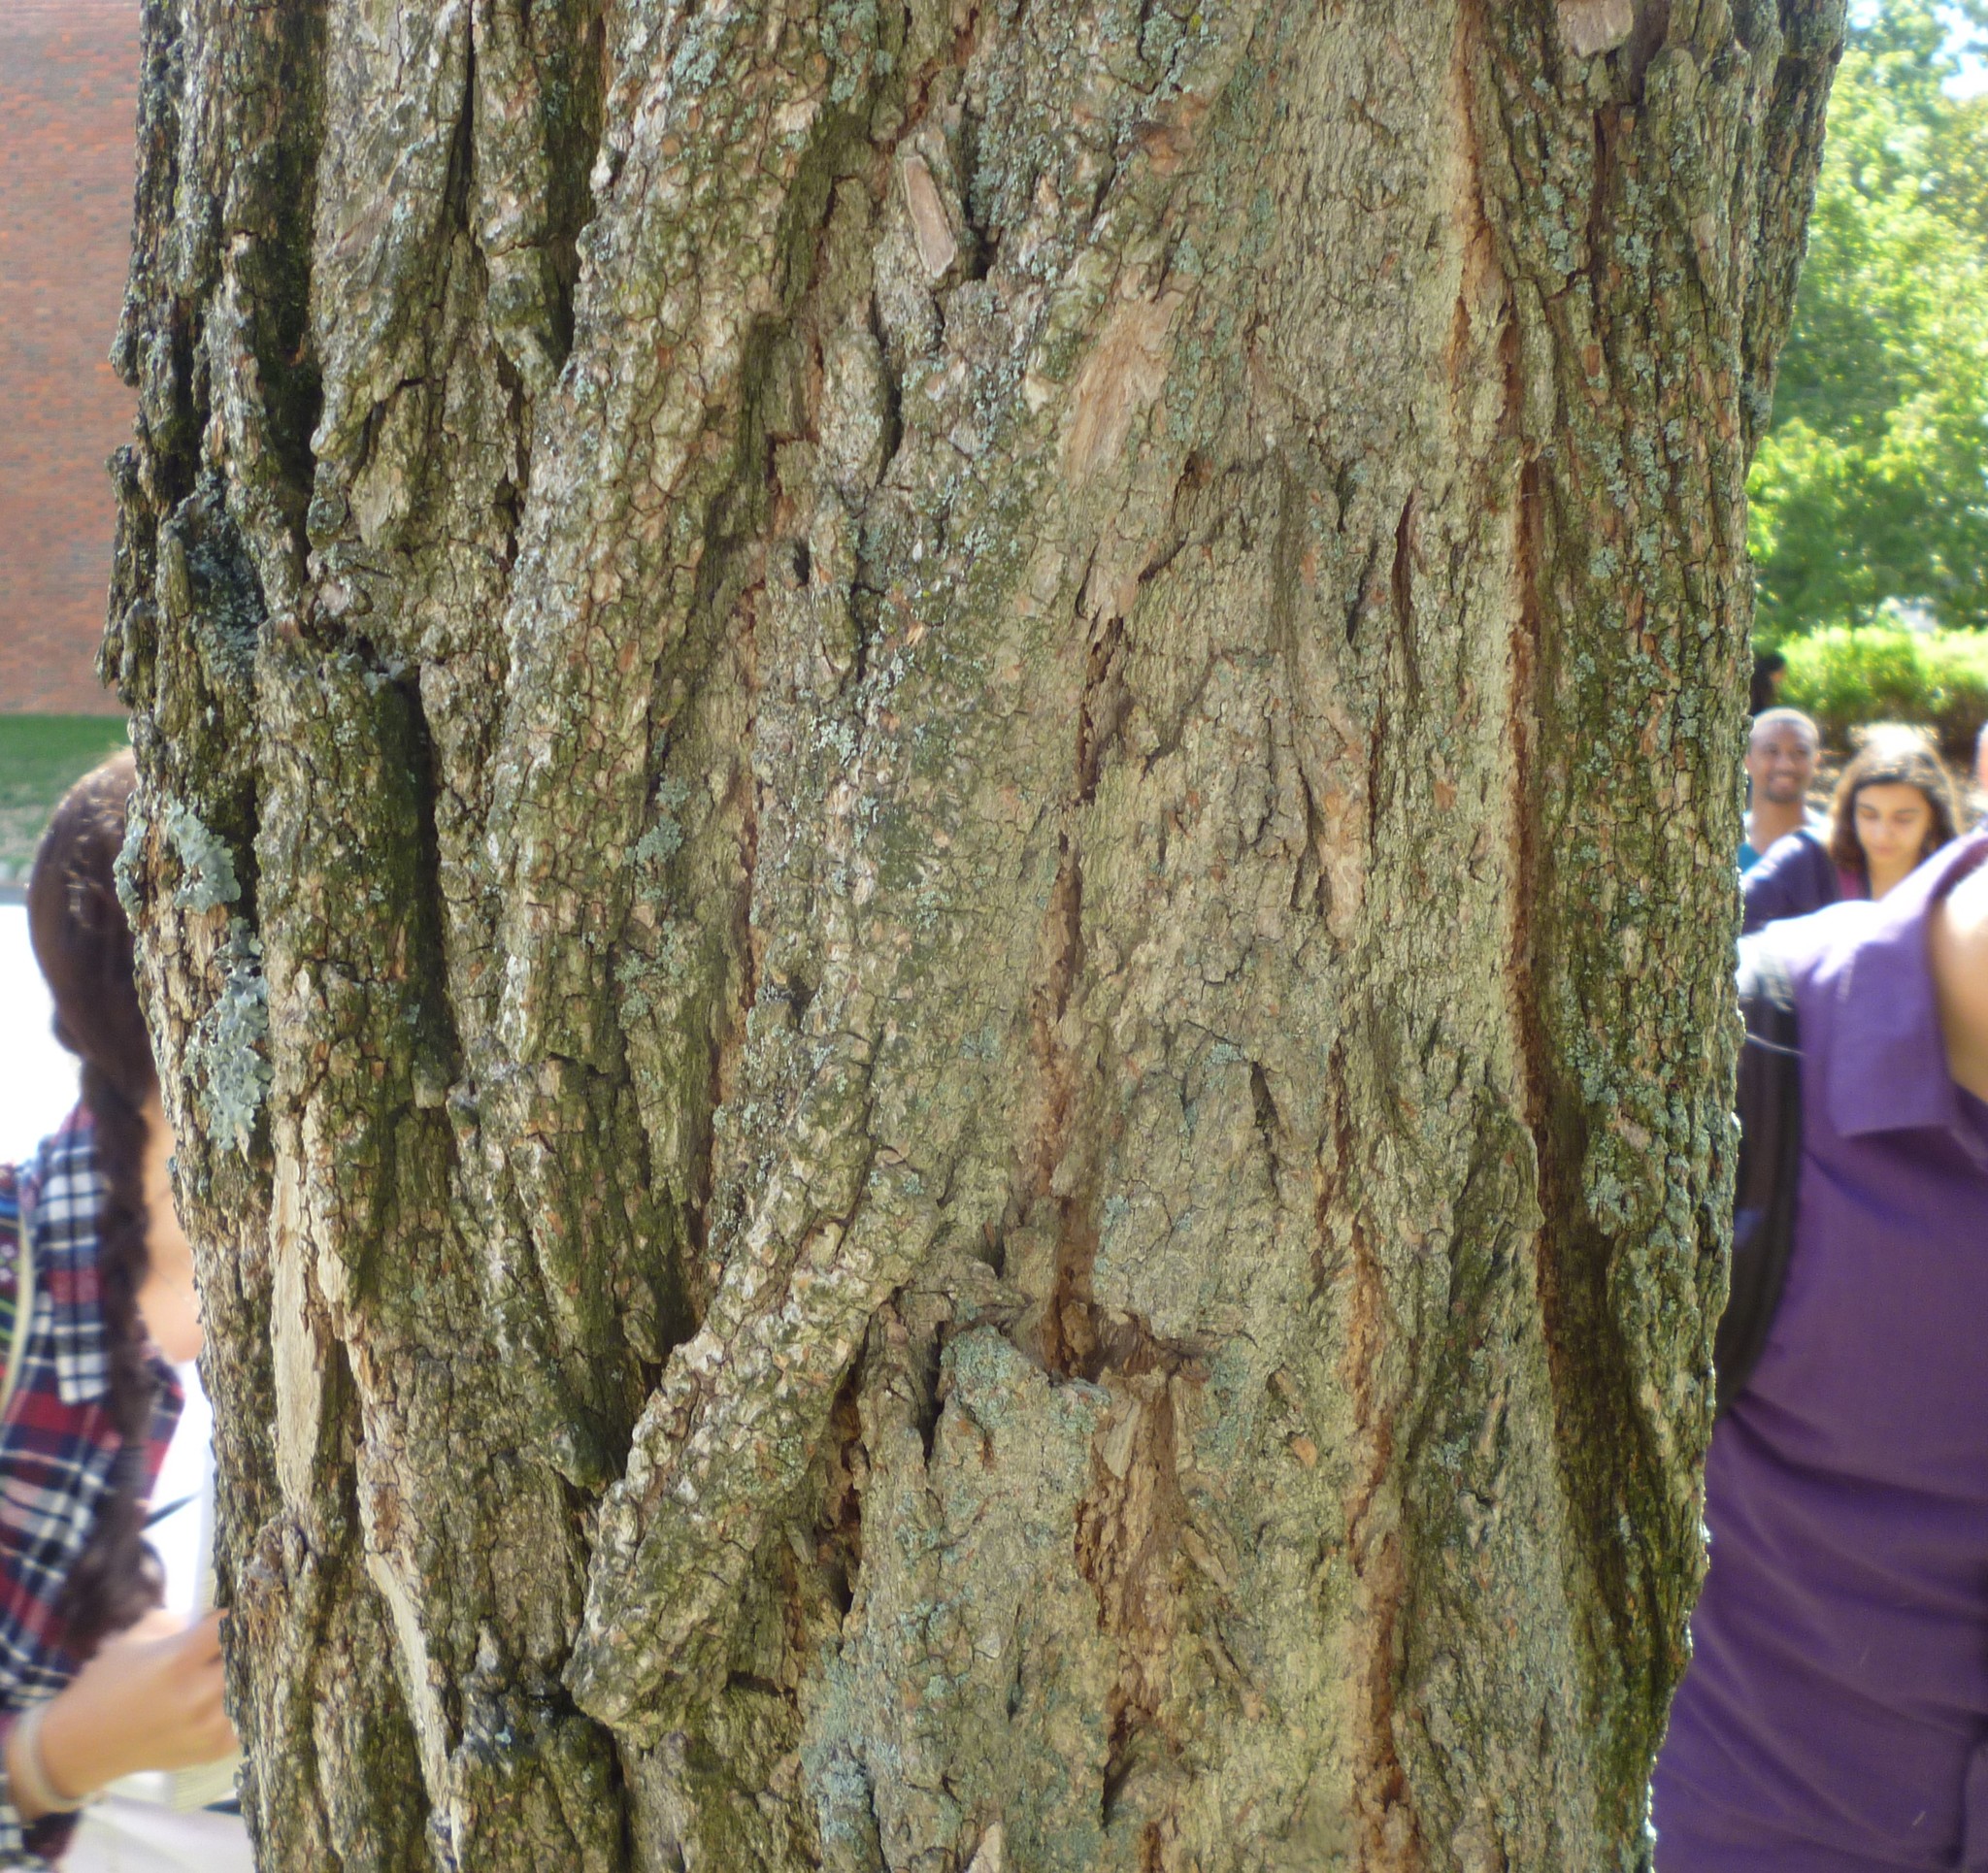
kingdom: Plantae
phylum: Tracheophyta
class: Magnoliopsida
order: Fabales
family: Fabaceae
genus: Robinia
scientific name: Robinia pseudoacacia
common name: Black locust
